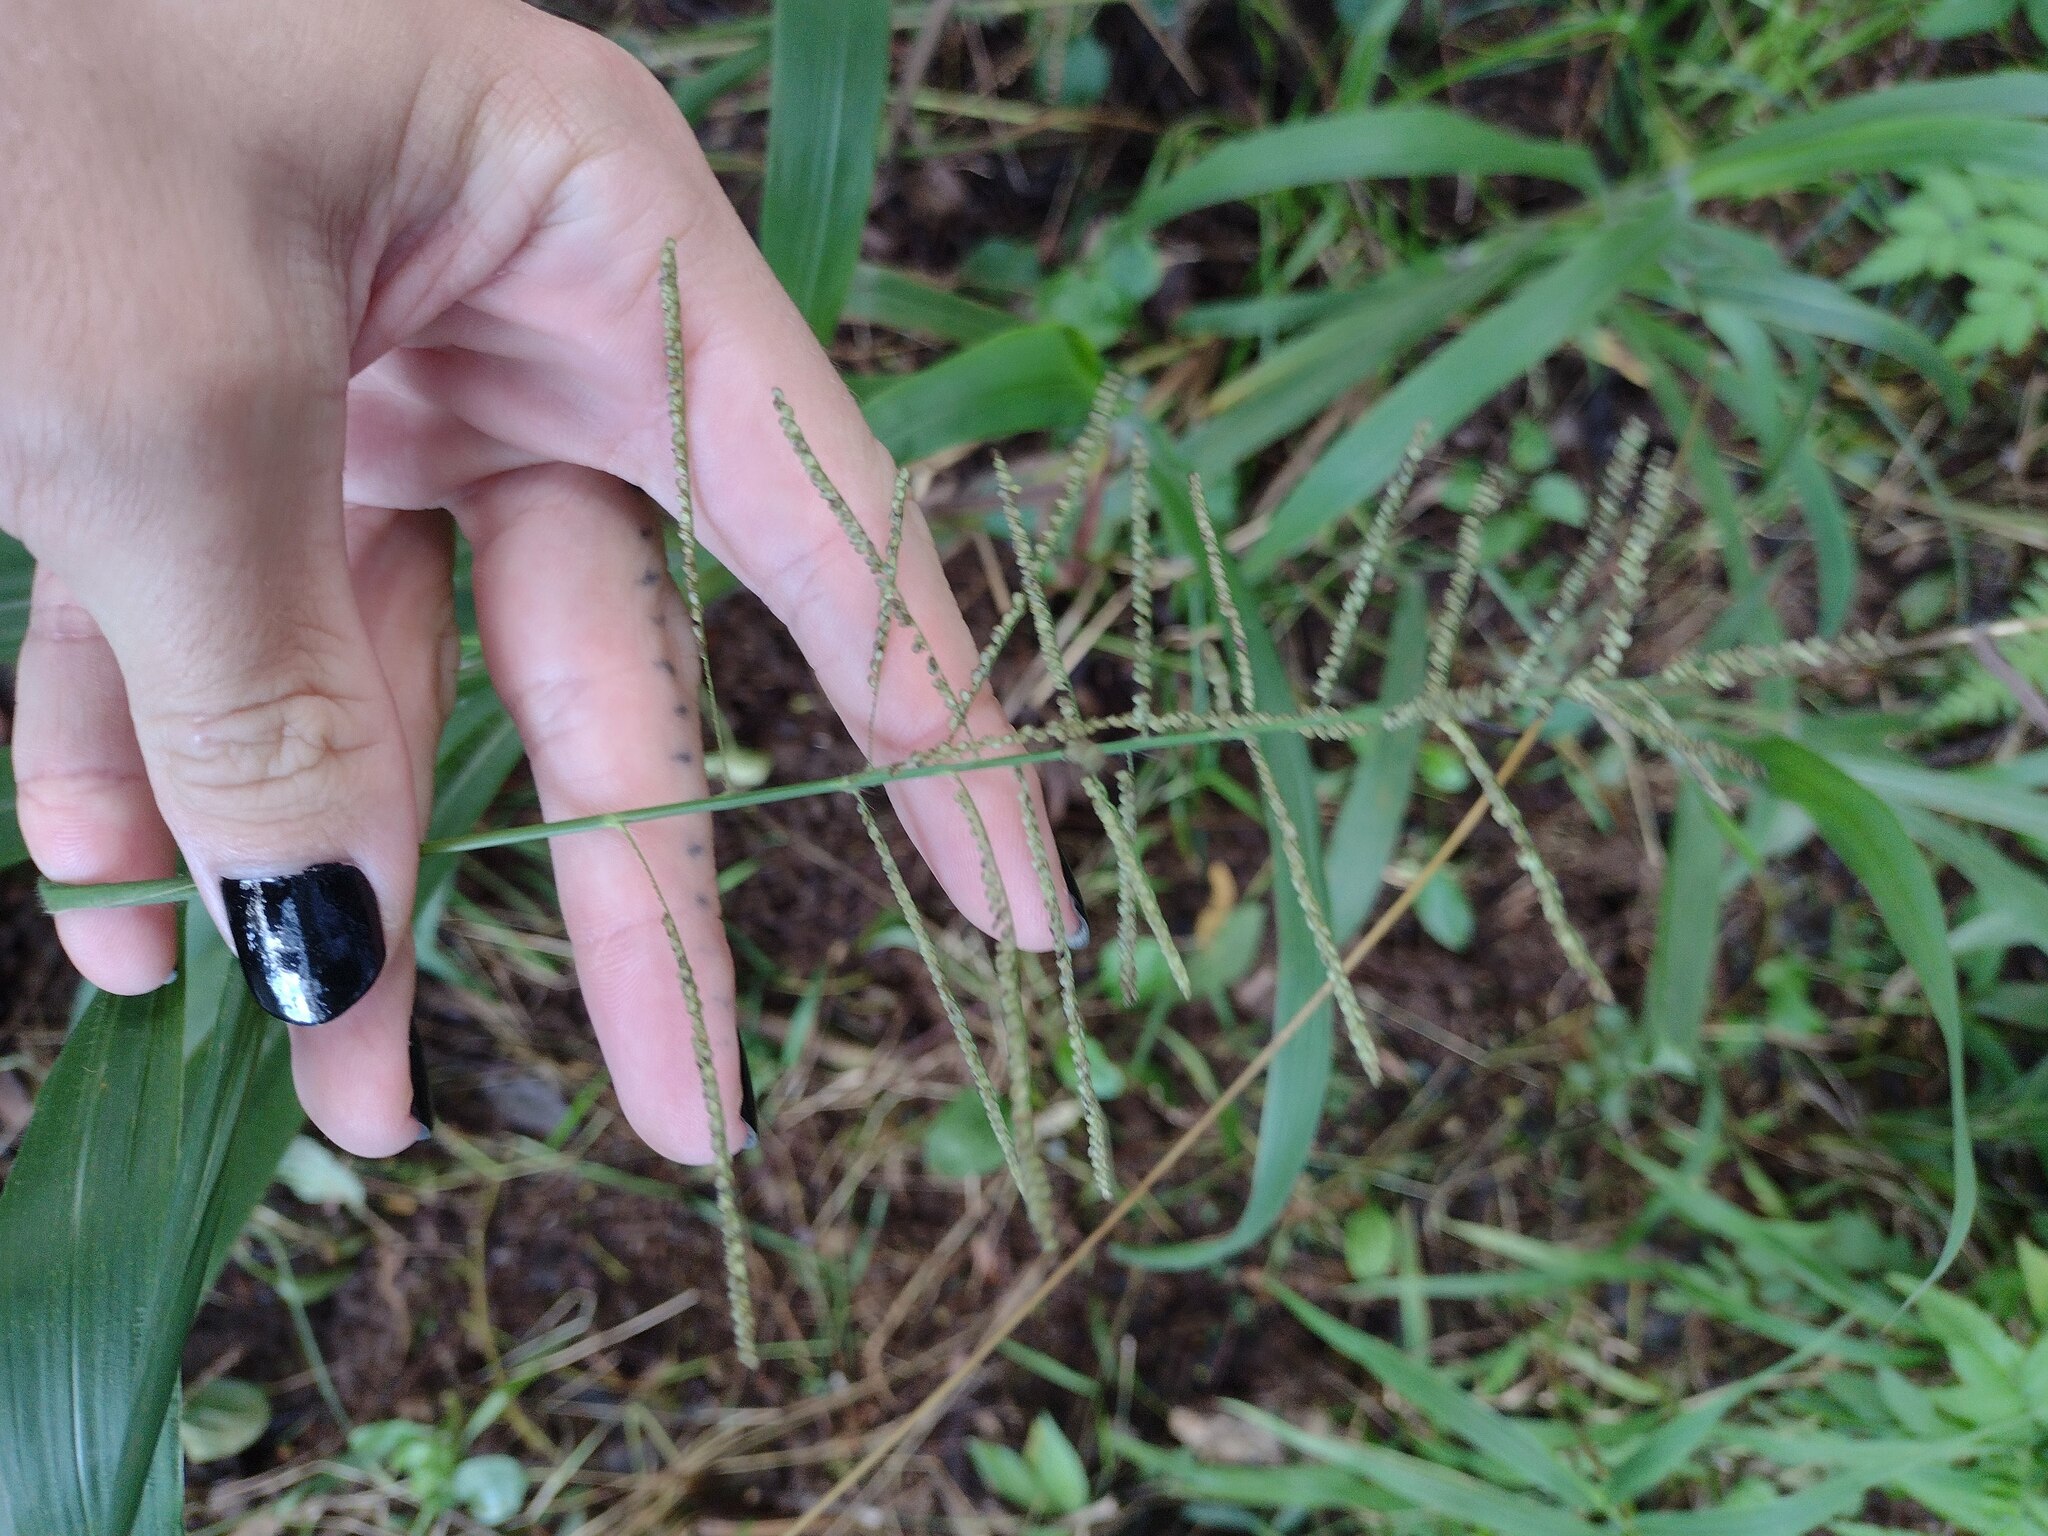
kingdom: Plantae
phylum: Tracheophyta
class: Liliopsida
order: Poales
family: Poaceae
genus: Paspalum
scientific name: Paspalum paniculatum
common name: Arrocillo
